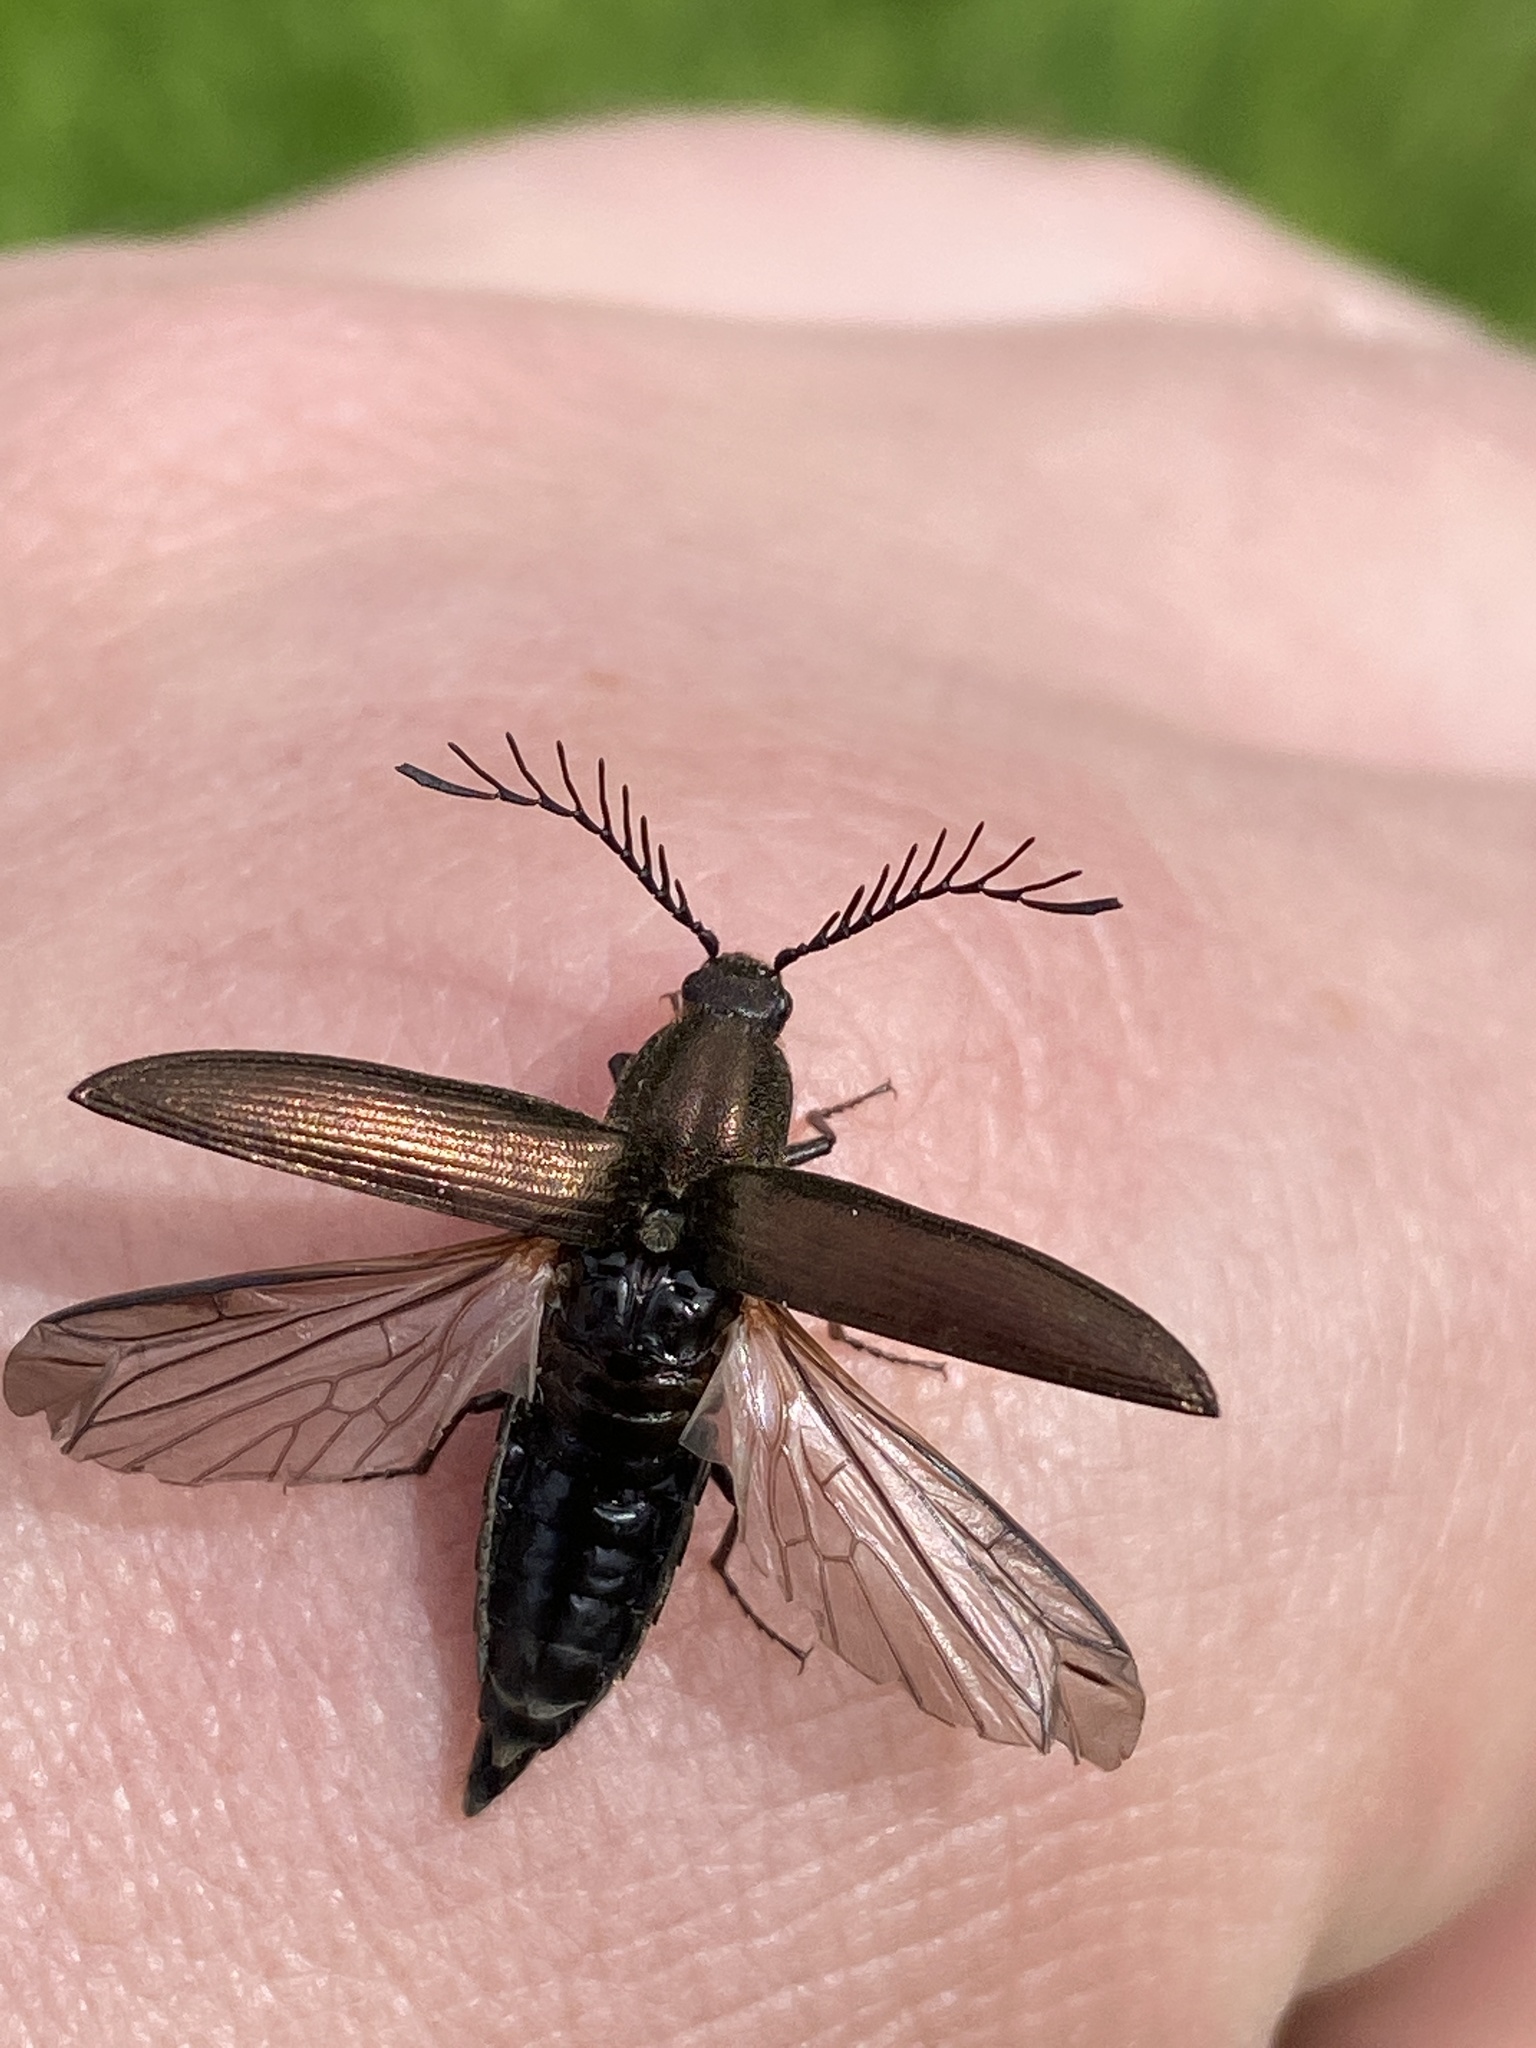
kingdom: Animalia
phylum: Arthropoda
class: Insecta
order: Coleoptera
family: Elateridae
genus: Ctenicera
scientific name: Ctenicera pectinicornis
